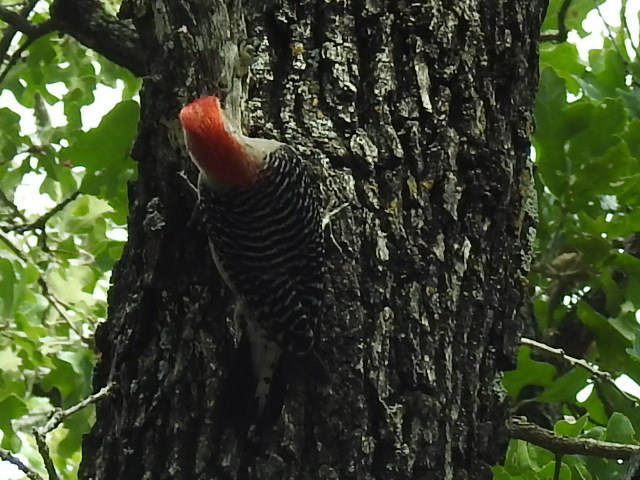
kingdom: Animalia
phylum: Chordata
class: Aves
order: Piciformes
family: Picidae
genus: Melanerpes
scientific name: Melanerpes carolinus
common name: Red-bellied woodpecker
